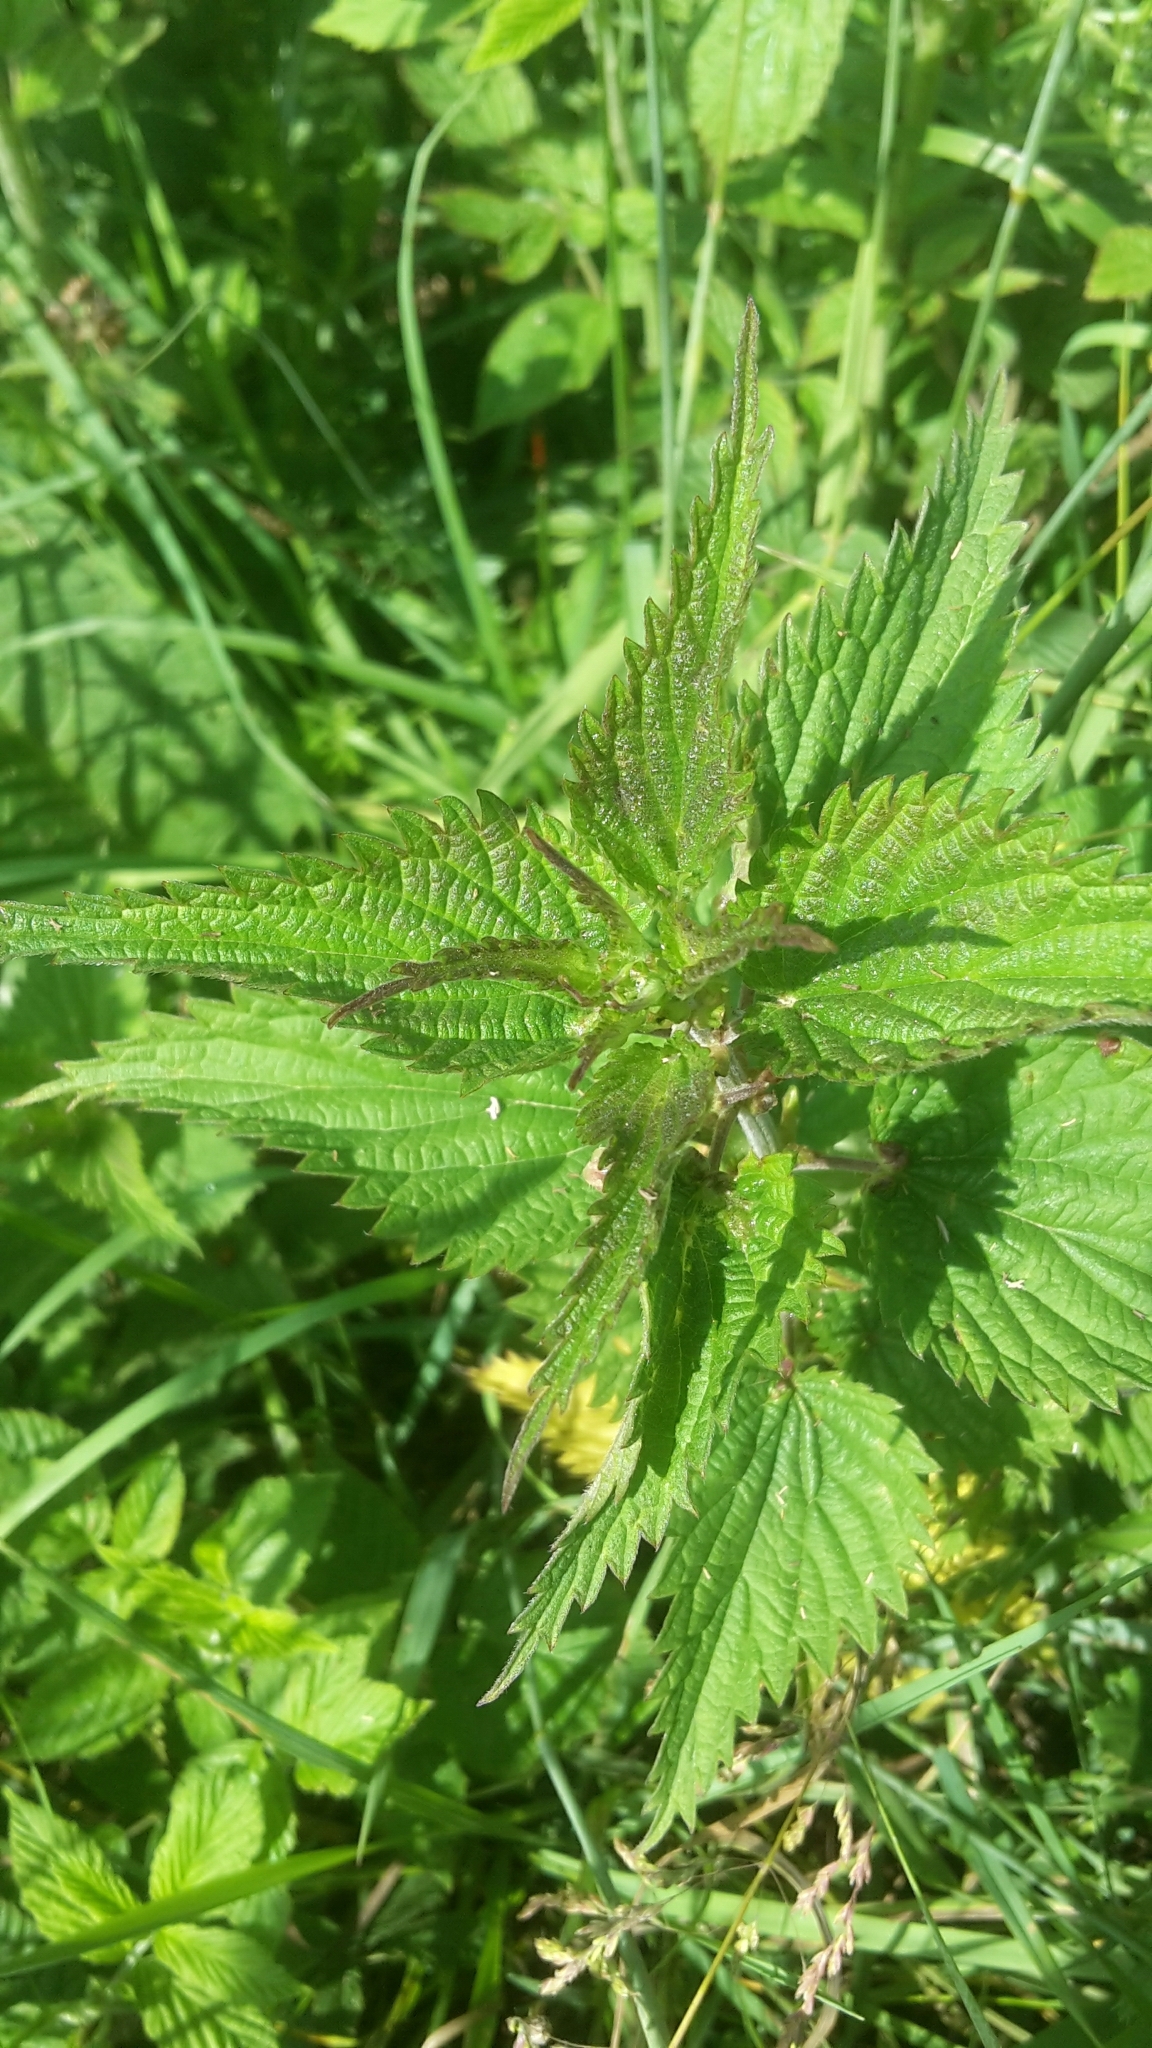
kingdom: Plantae
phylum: Tracheophyta
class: Magnoliopsida
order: Rosales
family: Urticaceae
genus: Urtica
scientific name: Urtica dioica
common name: Common nettle
